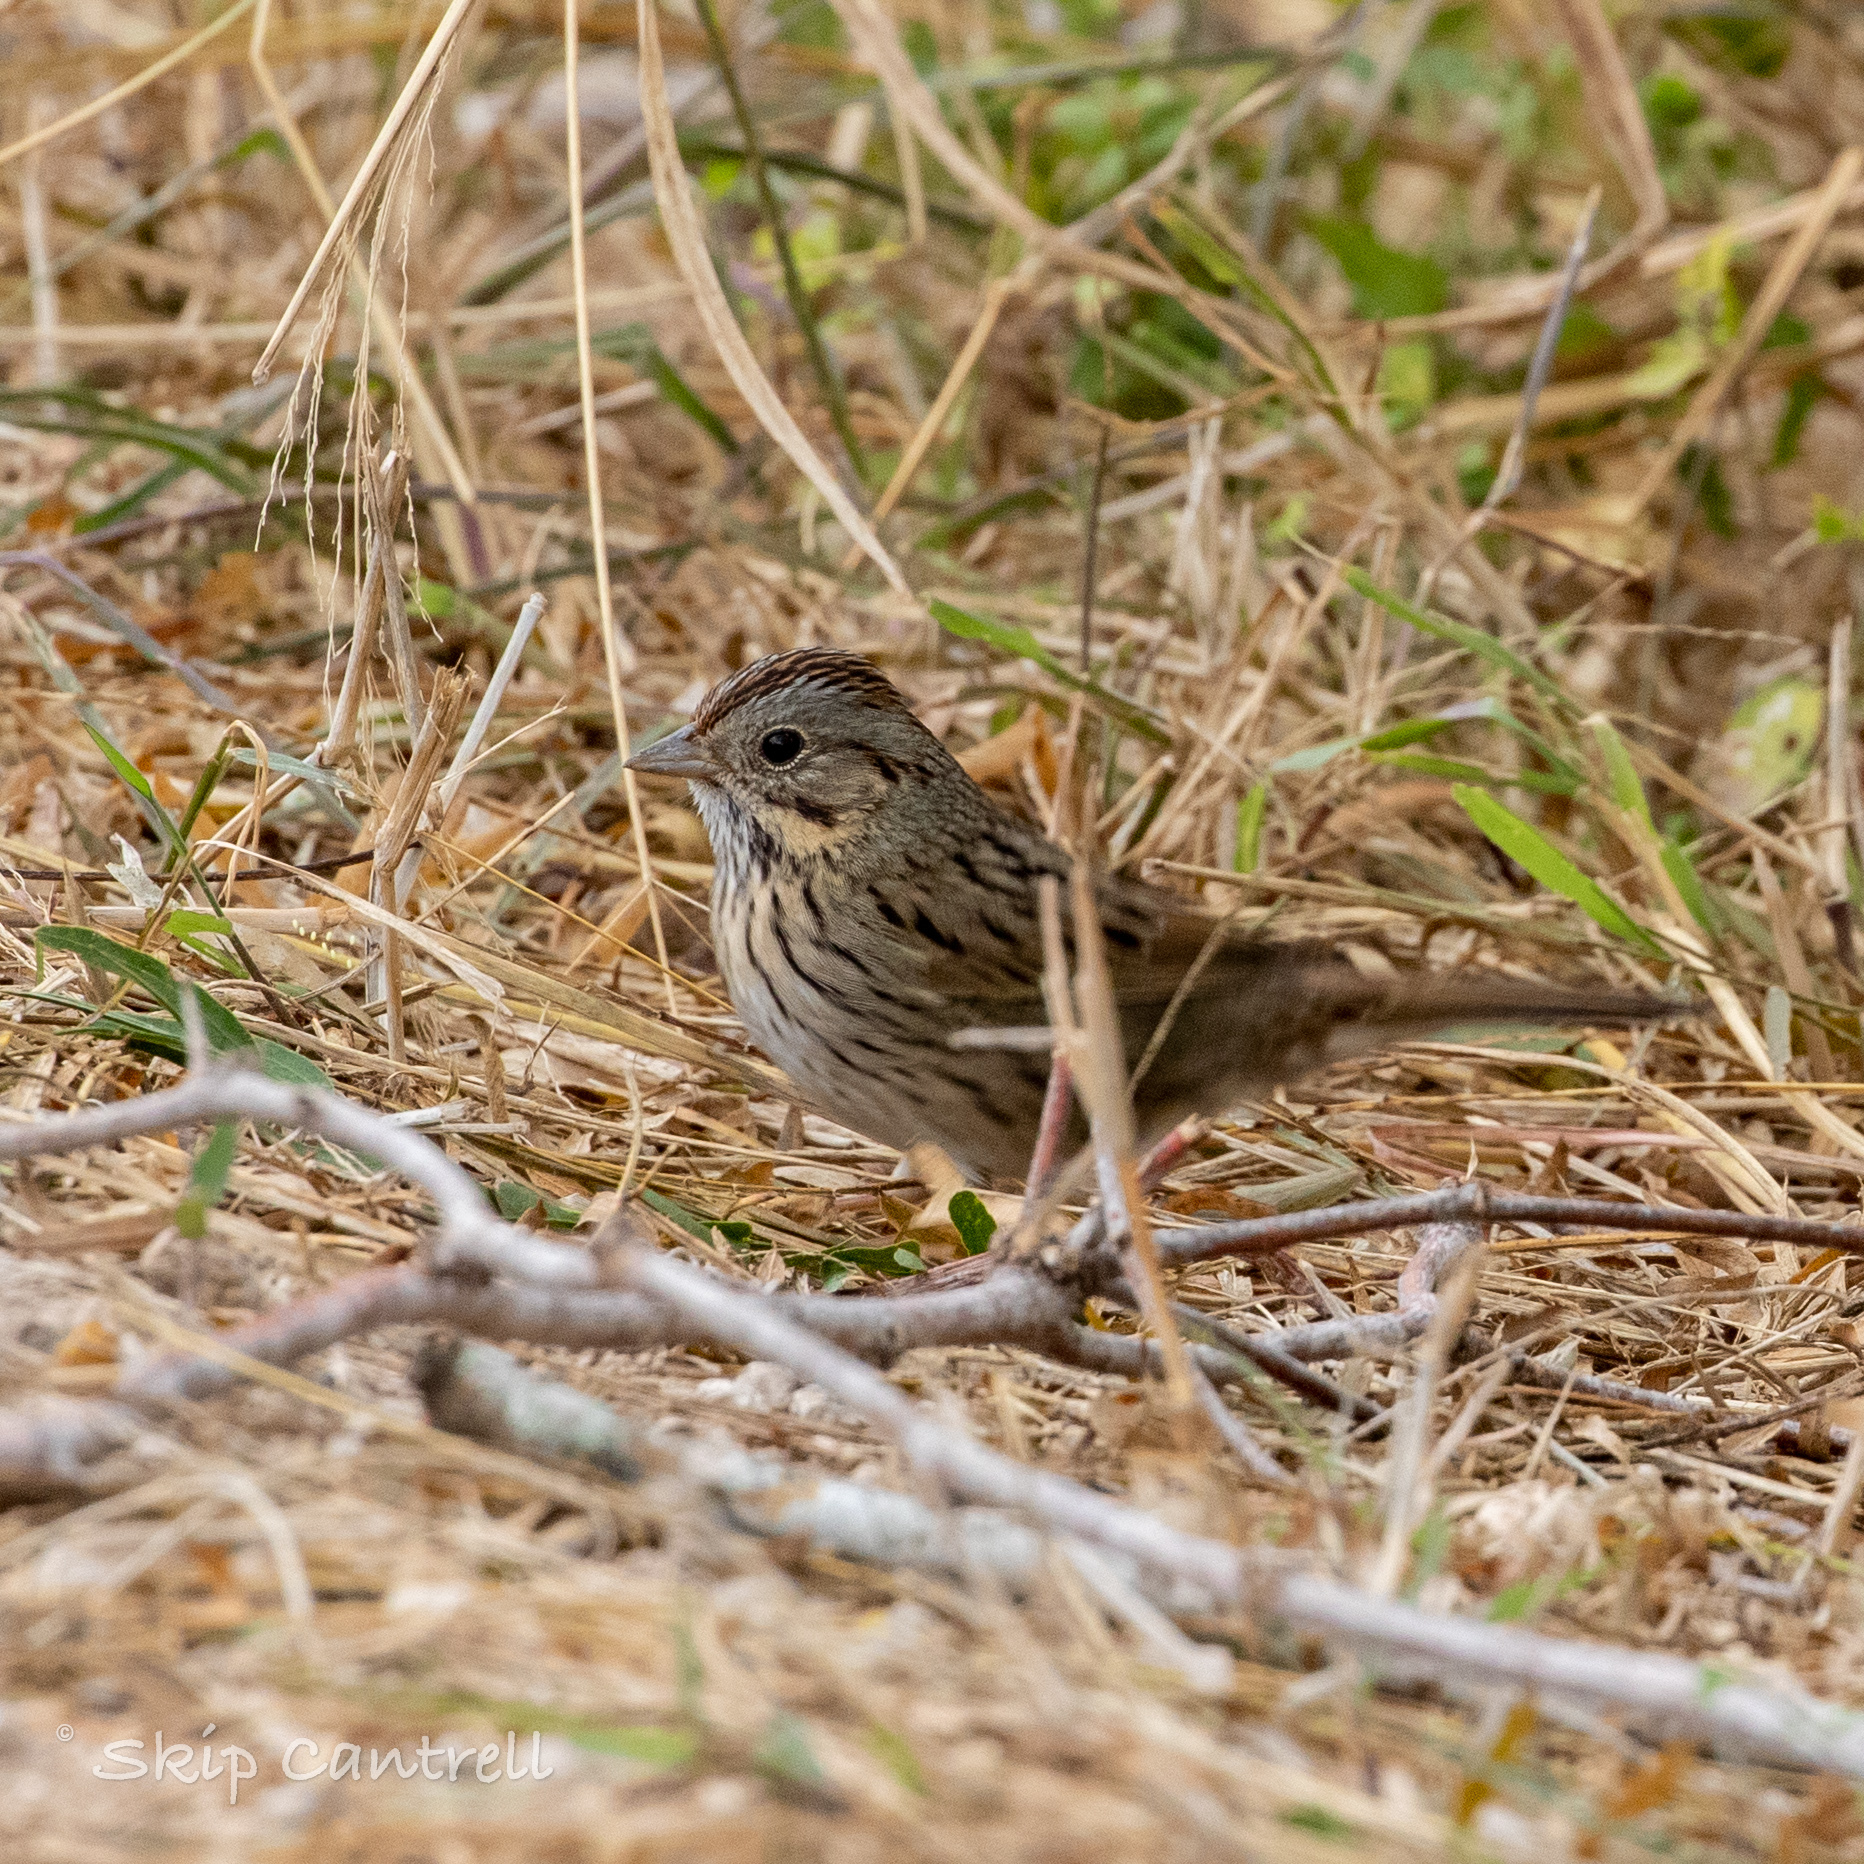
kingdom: Animalia
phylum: Chordata
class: Aves
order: Passeriformes
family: Passerellidae
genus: Melospiza
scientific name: Melospiza lincolnii
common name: Lincoln's sparrow
